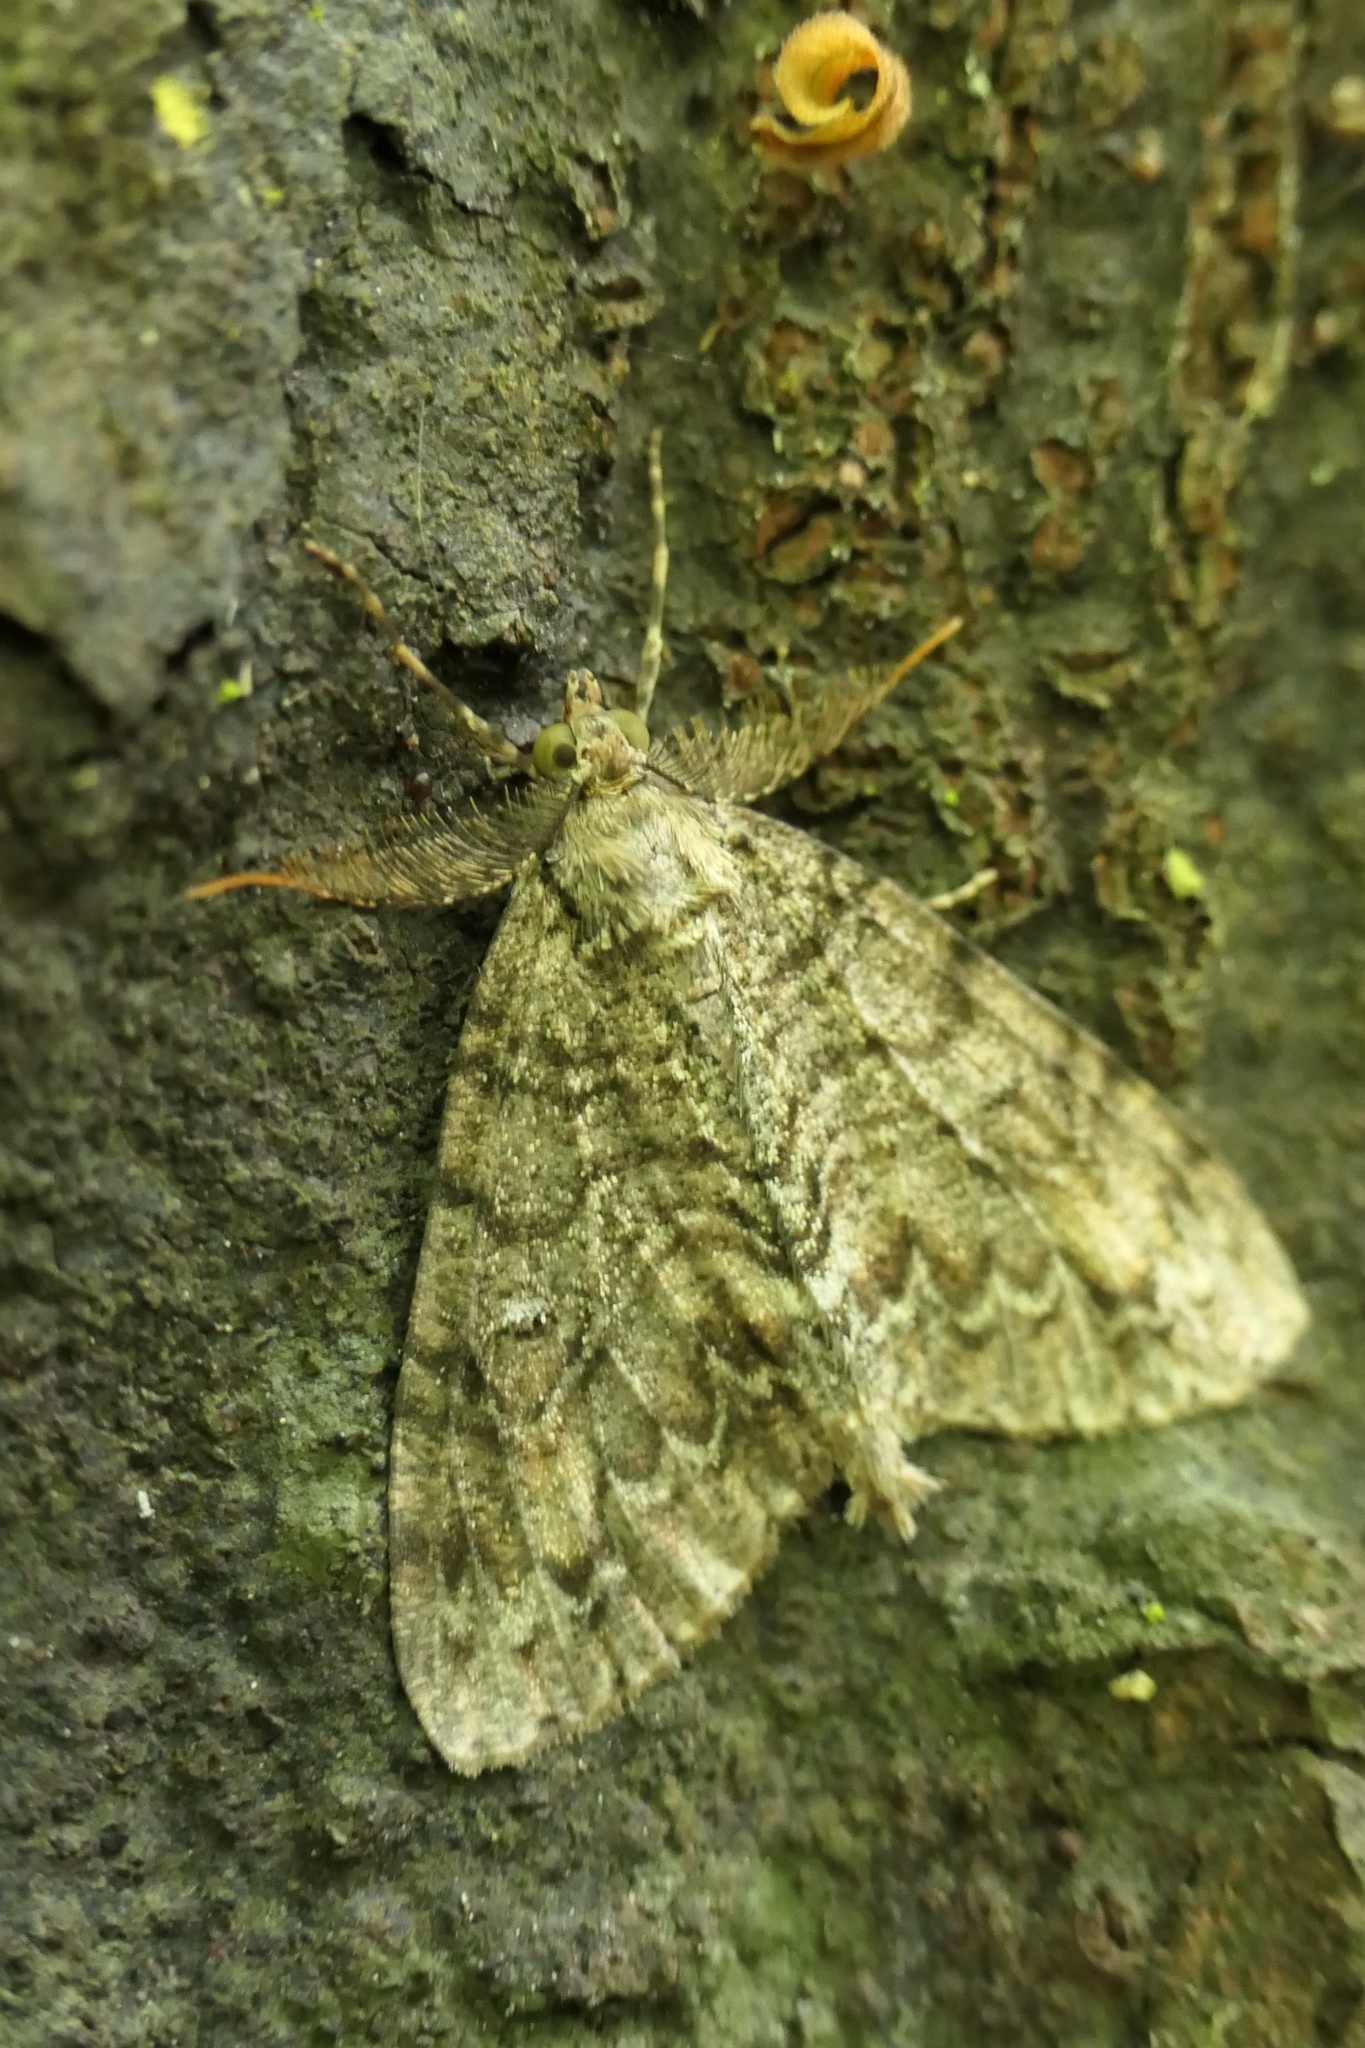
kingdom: Animalia
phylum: Arthropoda
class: Insecta
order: Lepidoptera
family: Geometridae
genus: Pseudocoremia
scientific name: Pseudocoremia suavis
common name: Common forest looper
